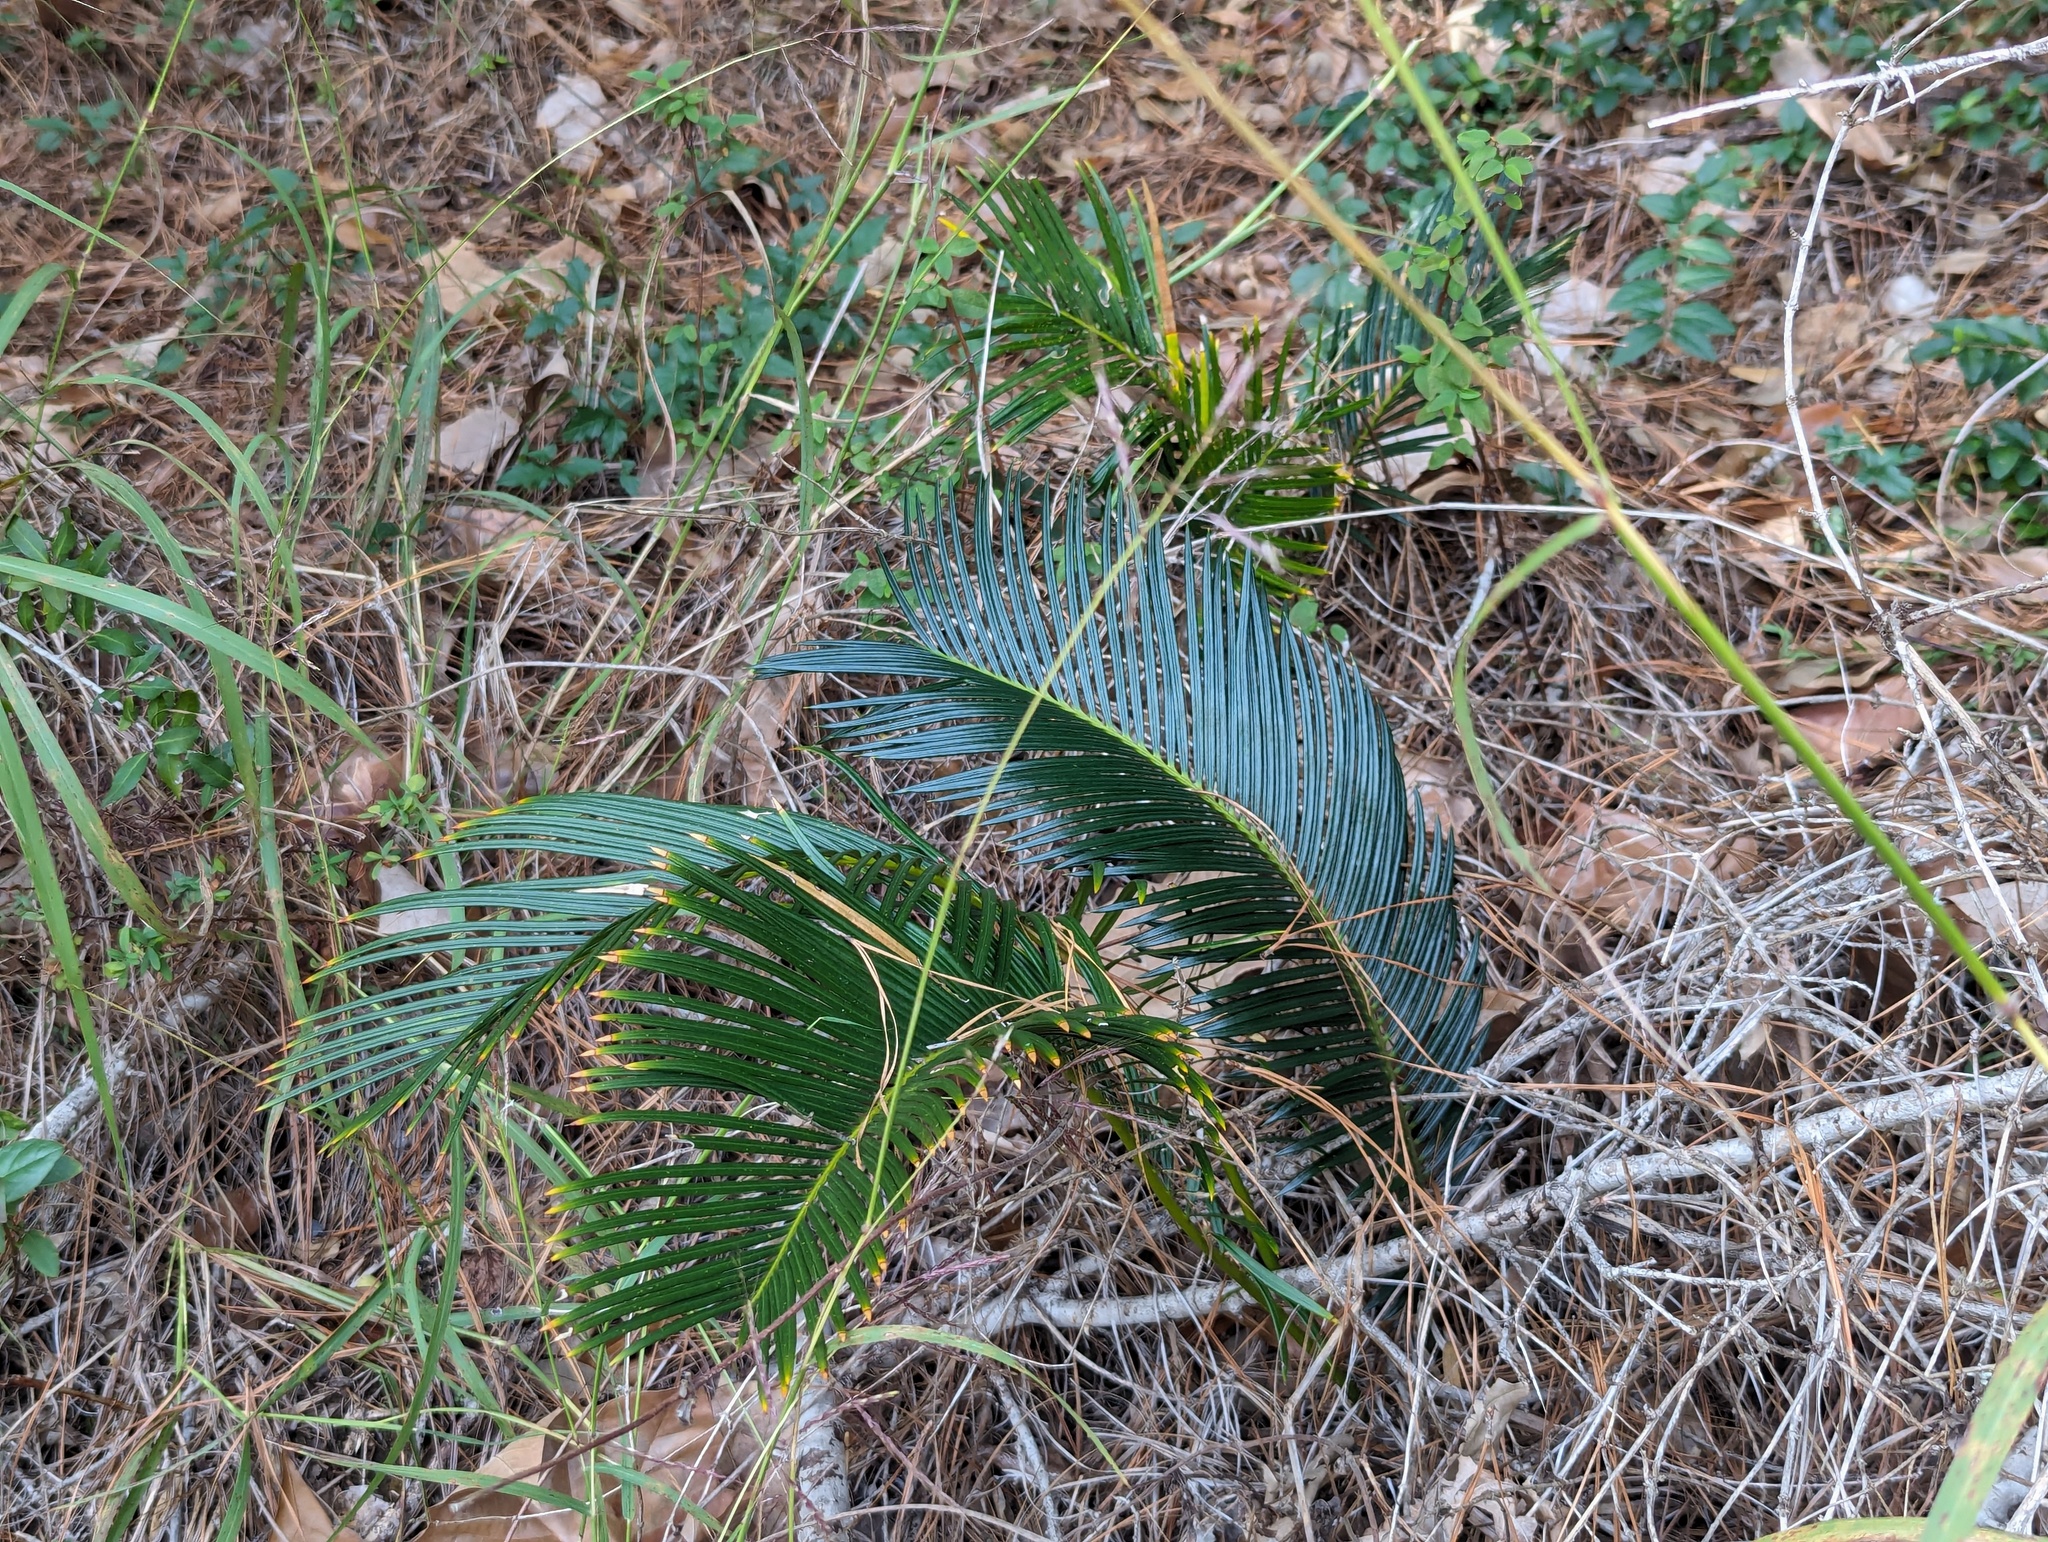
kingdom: Plantae
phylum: Tracheophyta
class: Cycadopsida
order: Cycadales
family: Cycadaceae
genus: Cycas
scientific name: Cycas revoluta
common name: Sago palm
